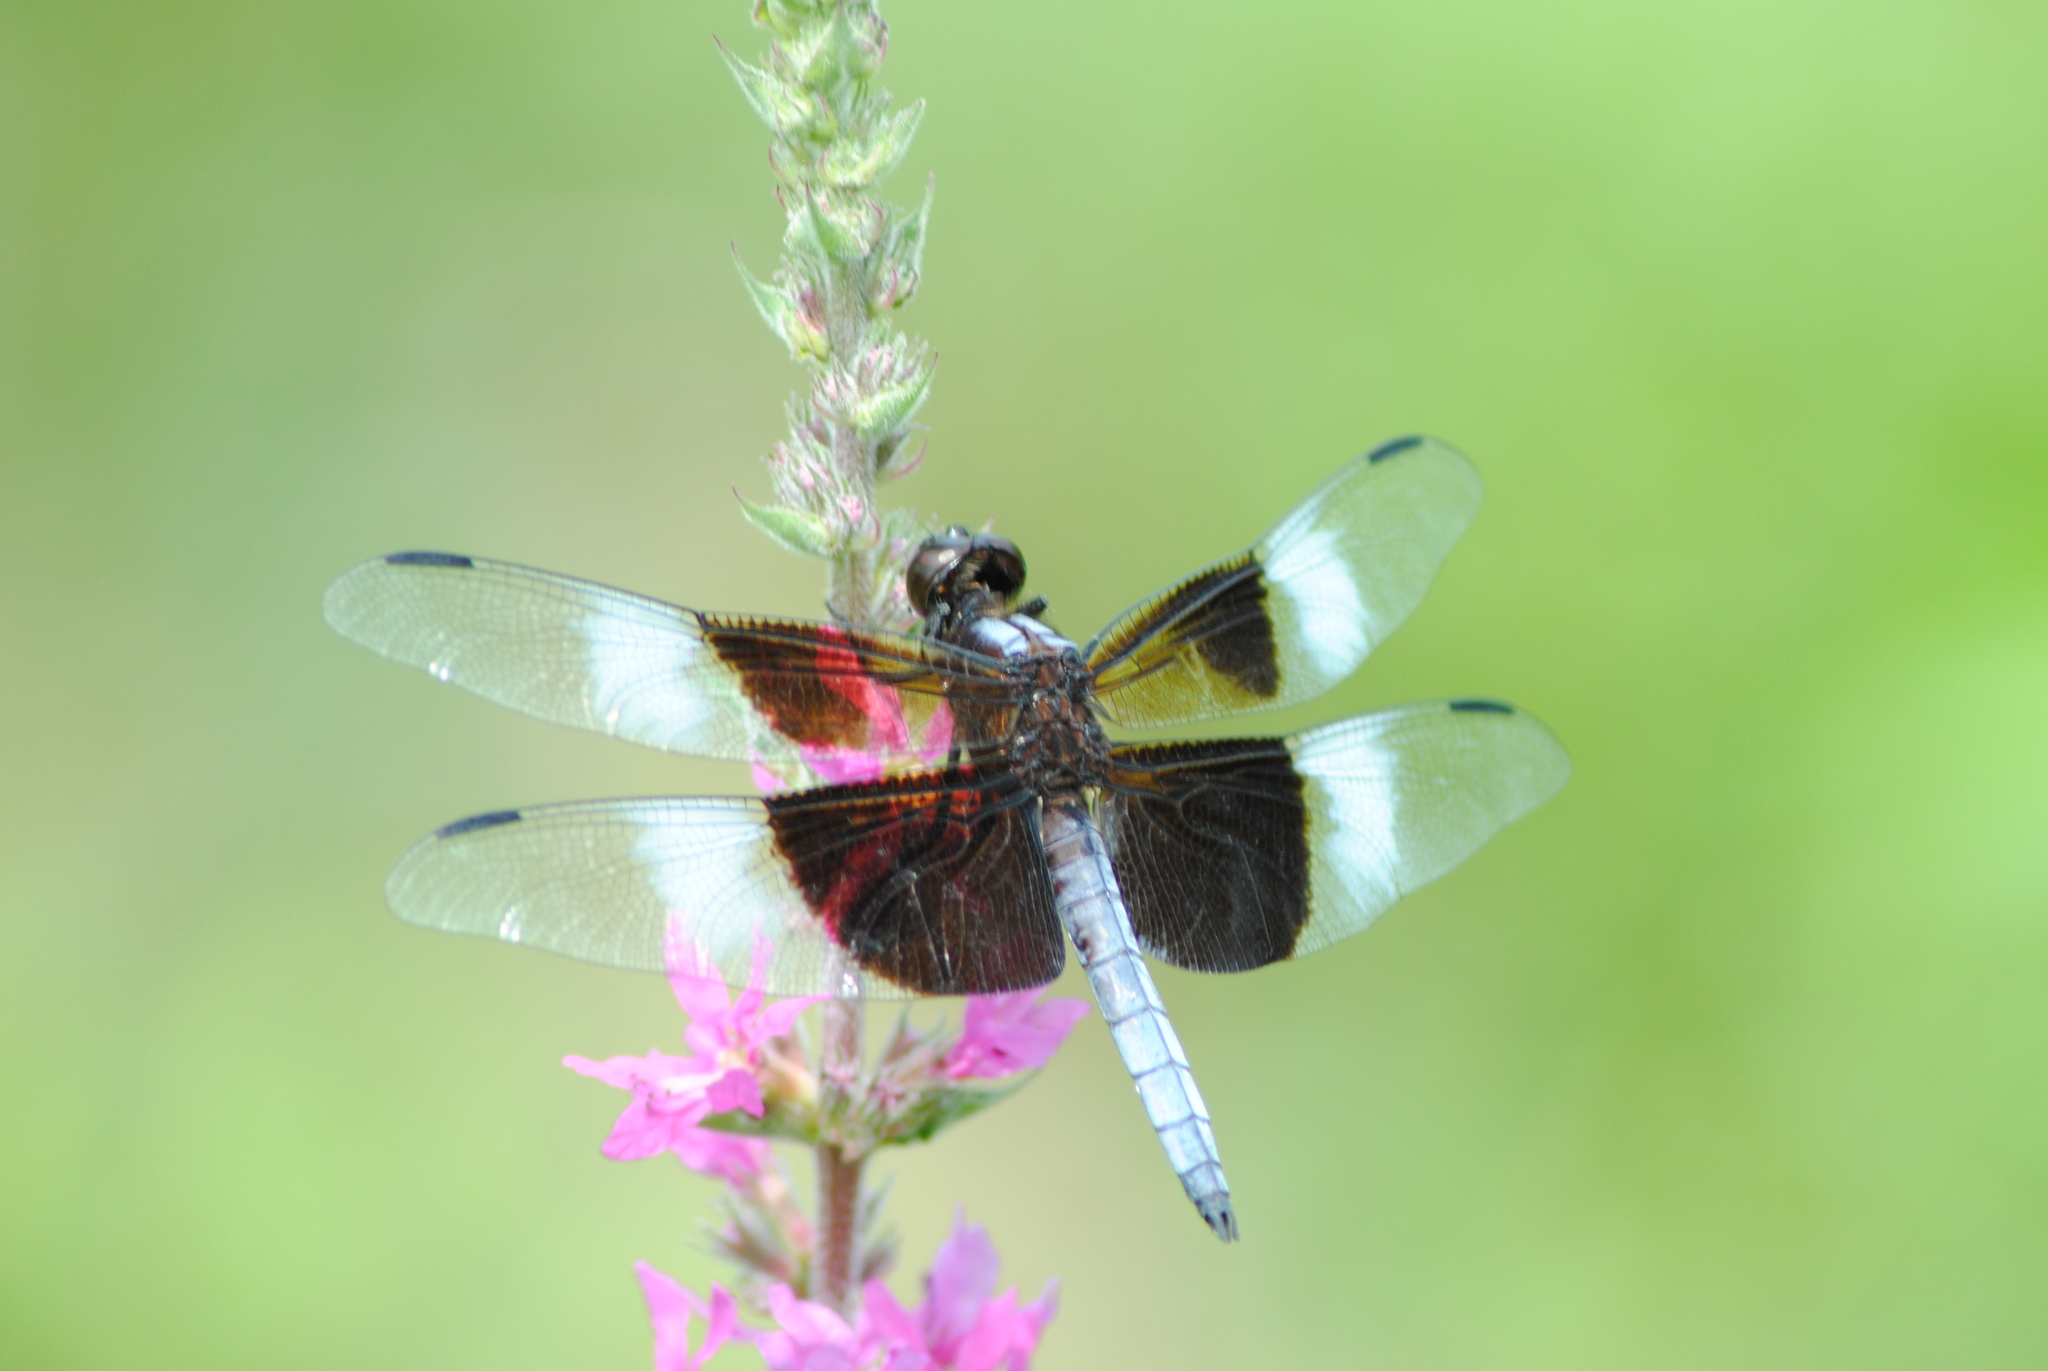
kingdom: Animalia
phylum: Arthropoda
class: Insecta
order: Odonata
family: Libellulidae
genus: Libellula
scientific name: Libellula luctuosa
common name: Widow skimmer
